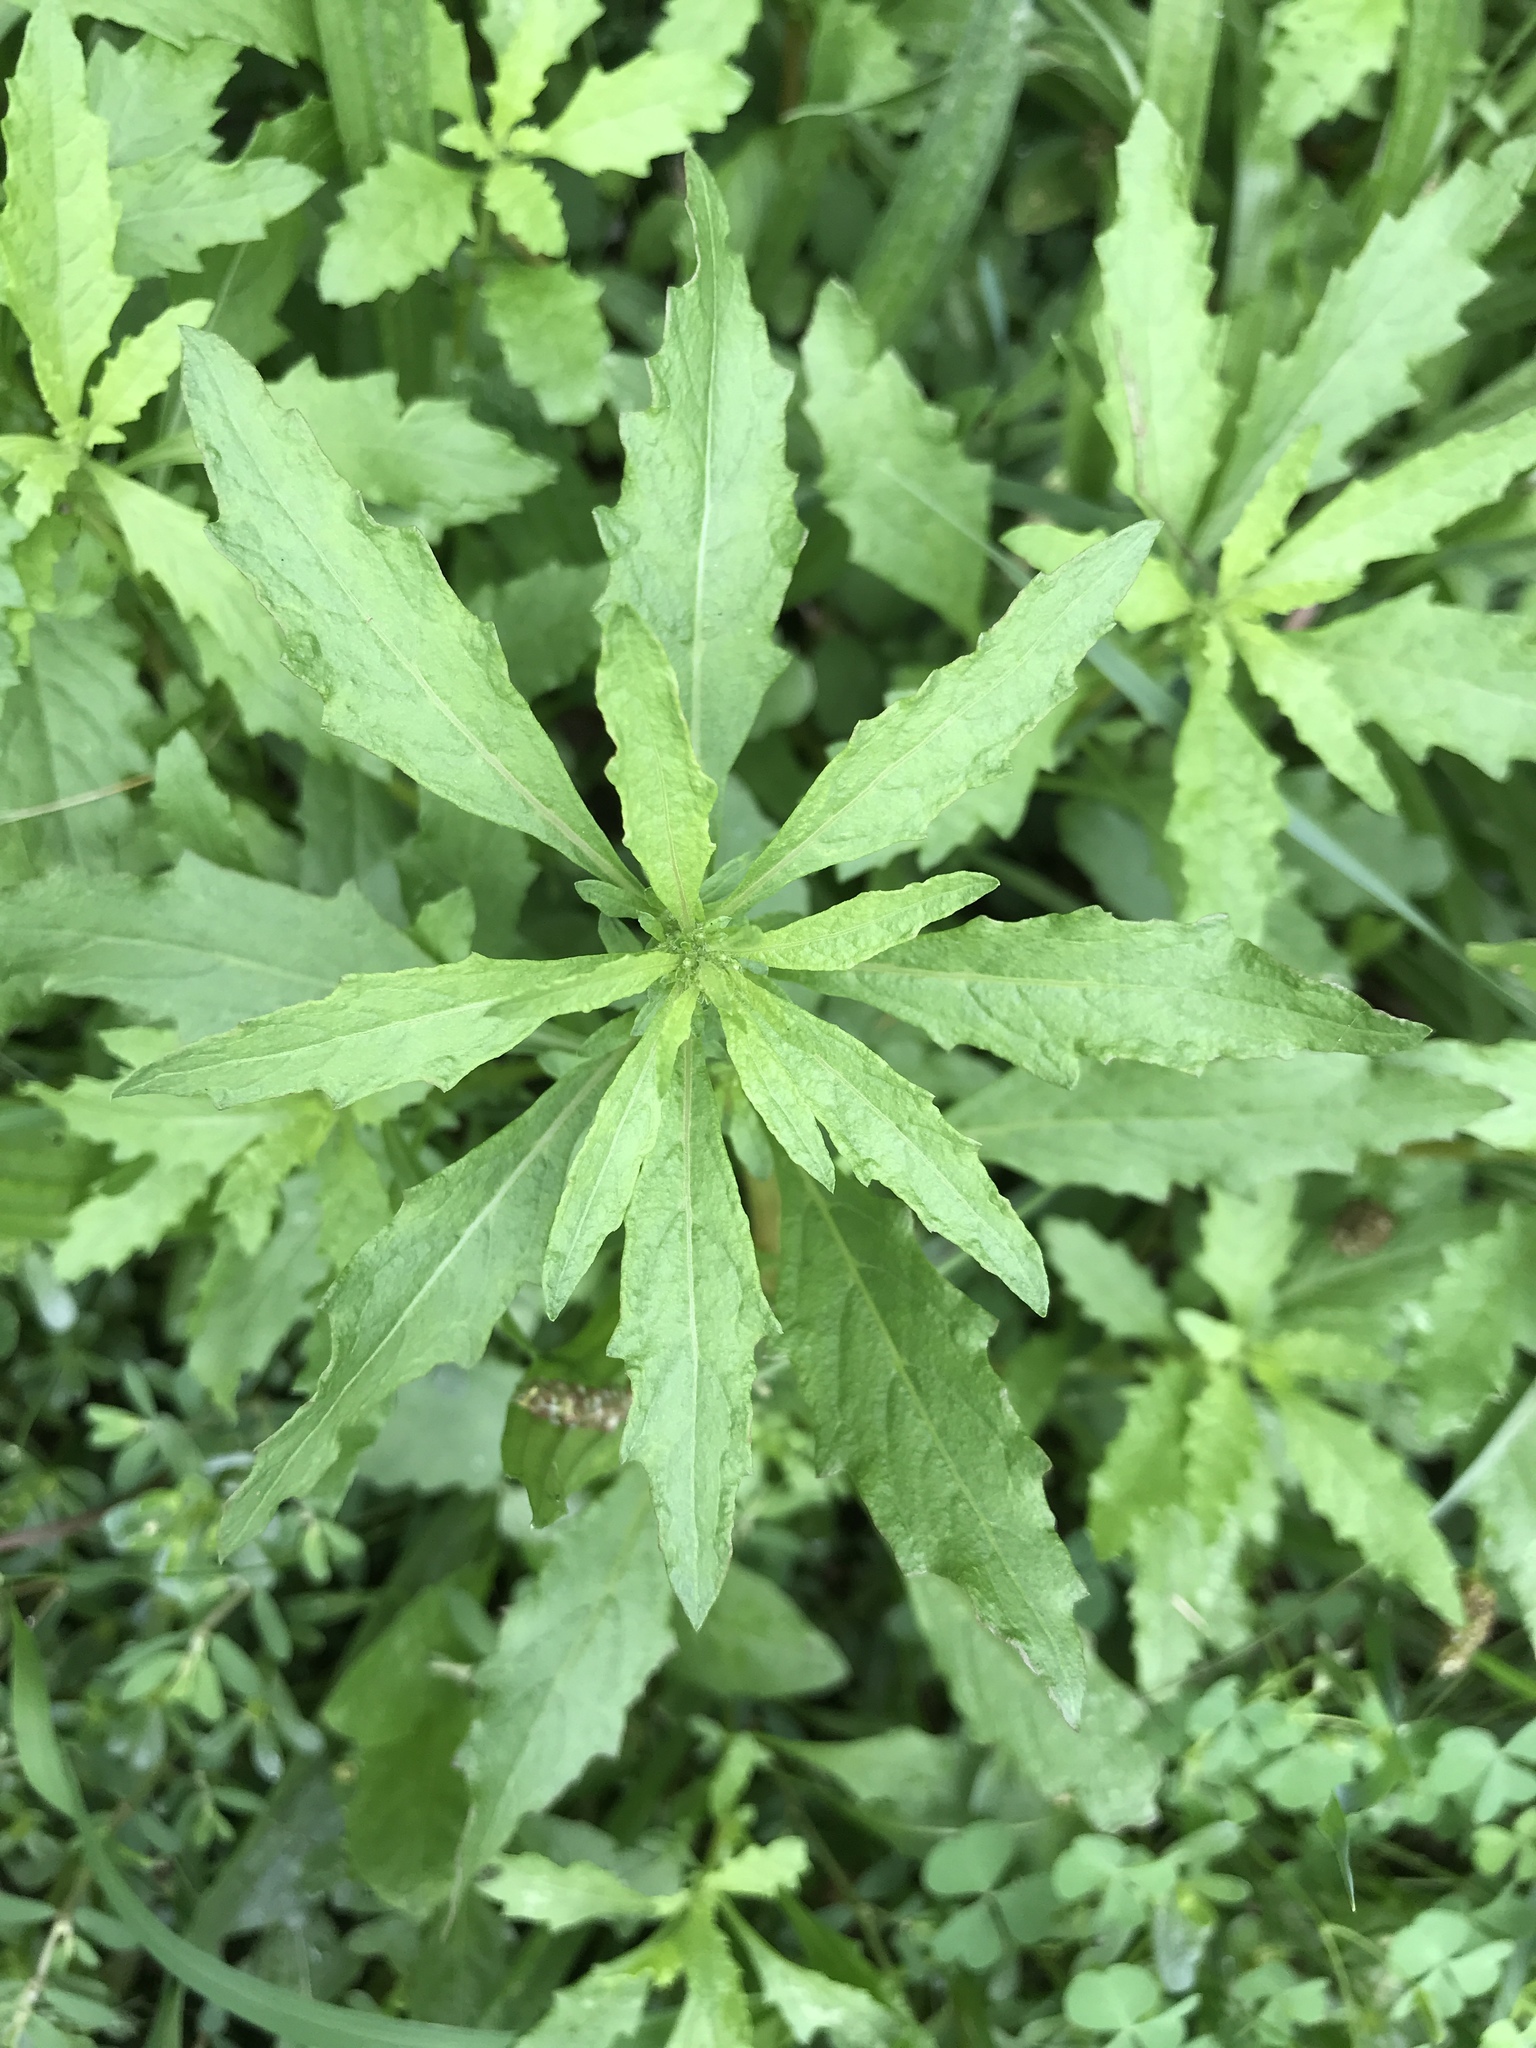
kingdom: Plantae
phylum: Tracheophyta
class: Magnoliopsida
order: Caryophyllales
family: Amaranthaceae
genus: Dysphania
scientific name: Dysphania ambrosioides
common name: Wormseed
